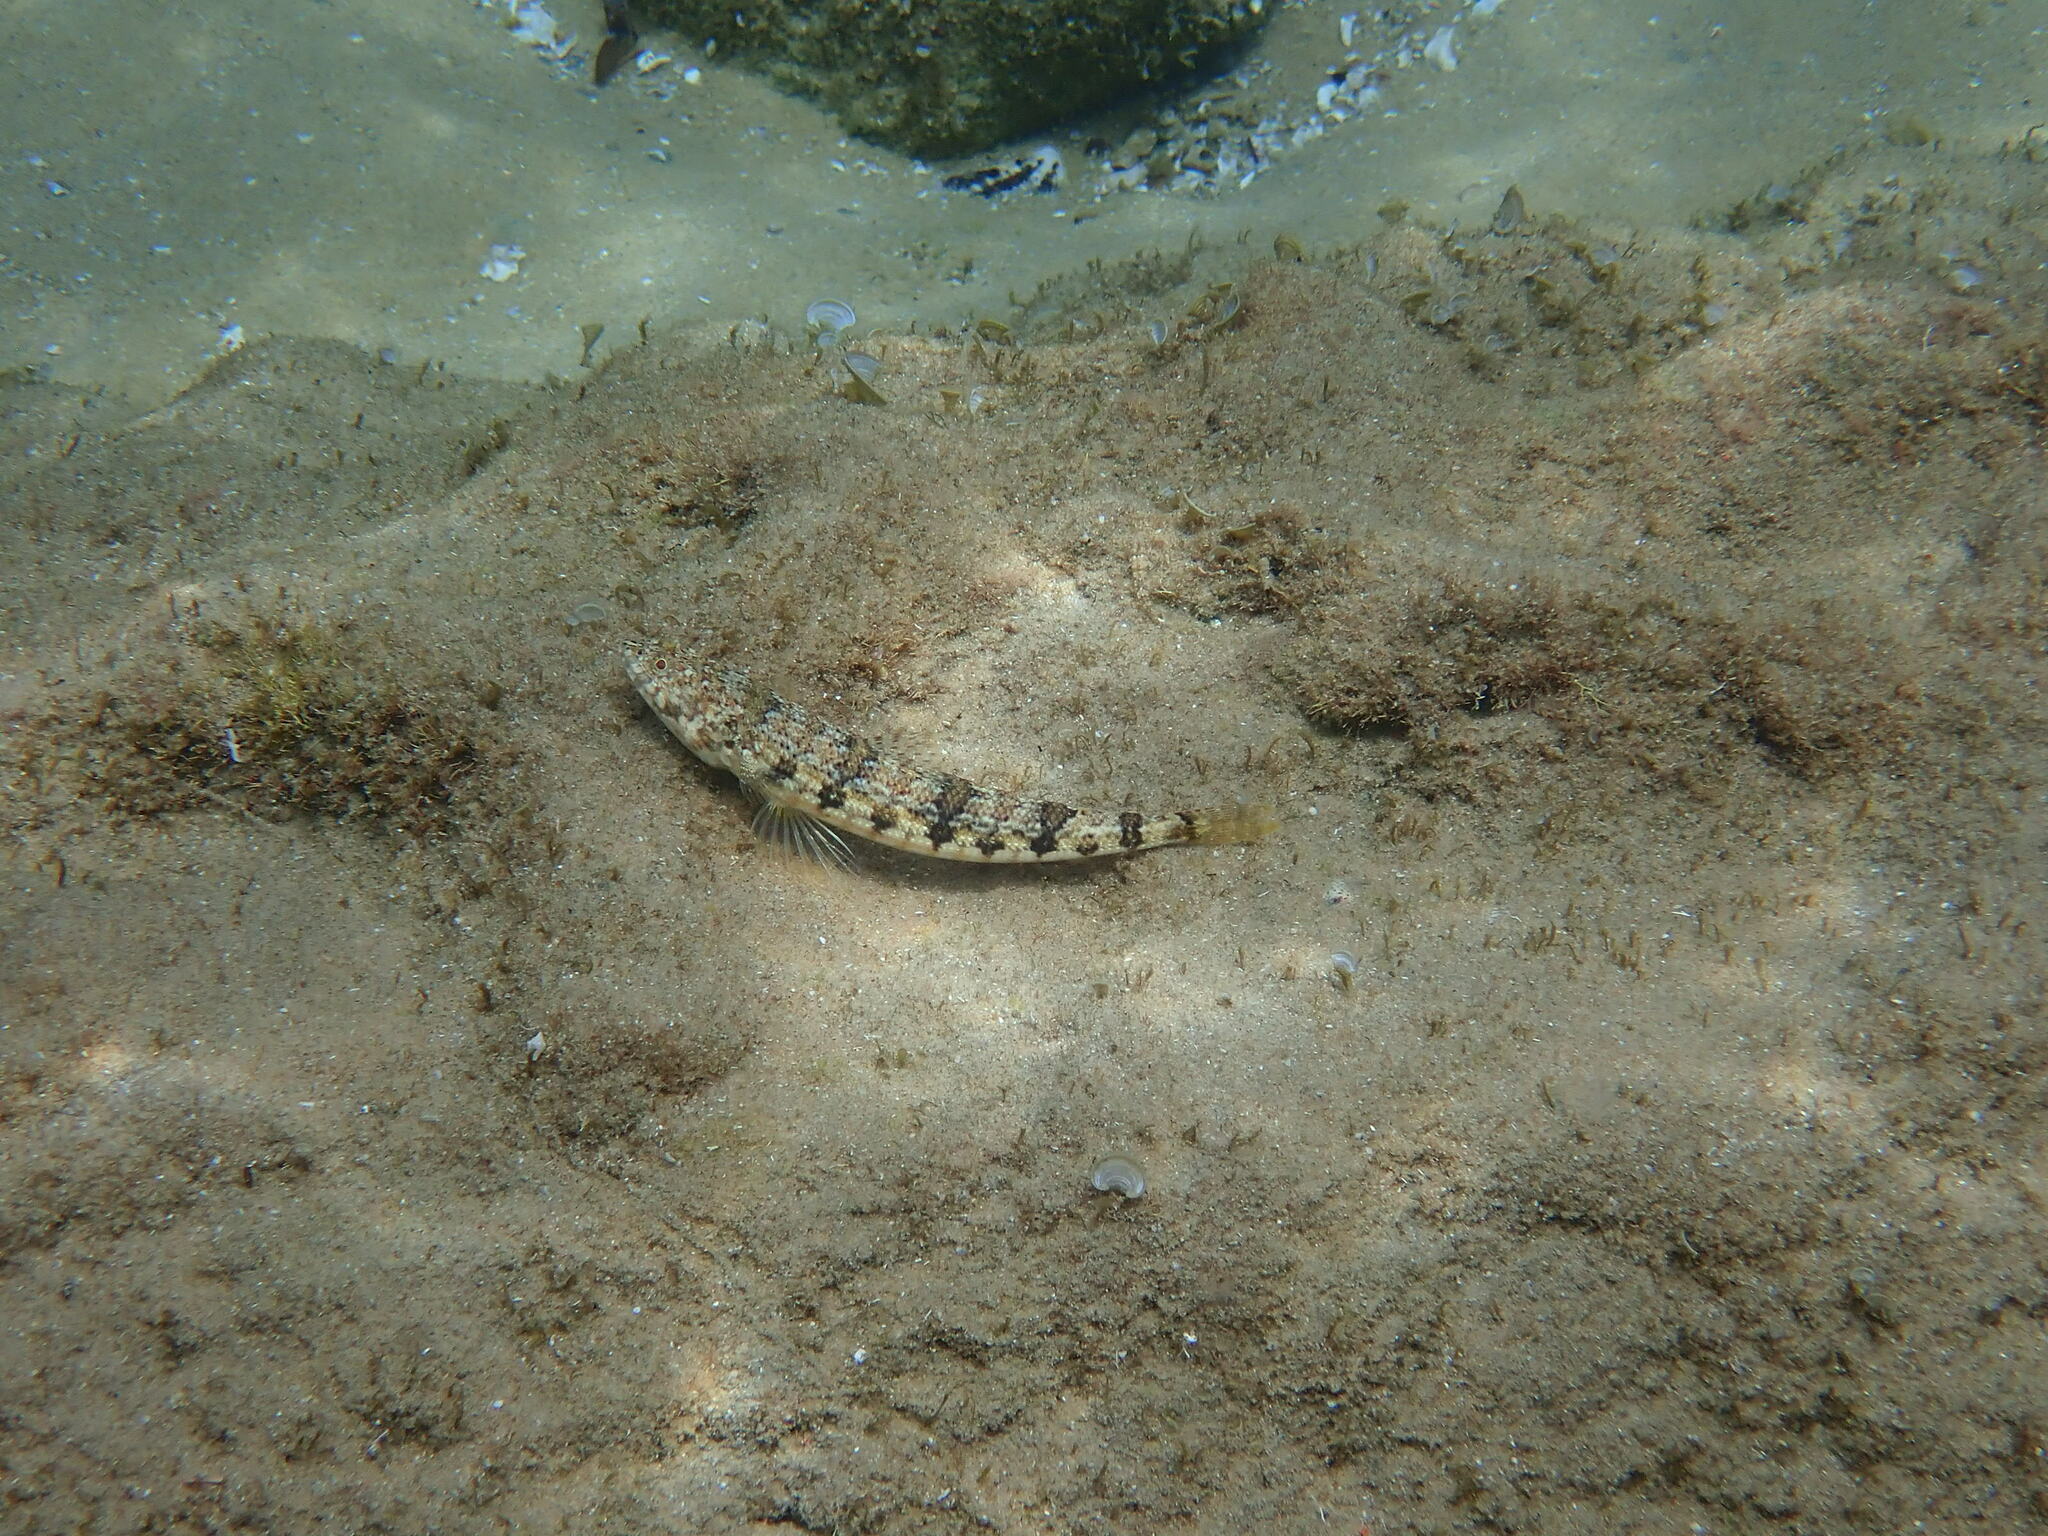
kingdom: Animalia
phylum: Chordata
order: Aulopiformes
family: Synodontidae
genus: Synodus
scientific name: Synodus dermatogenys
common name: Banded lizardfish
